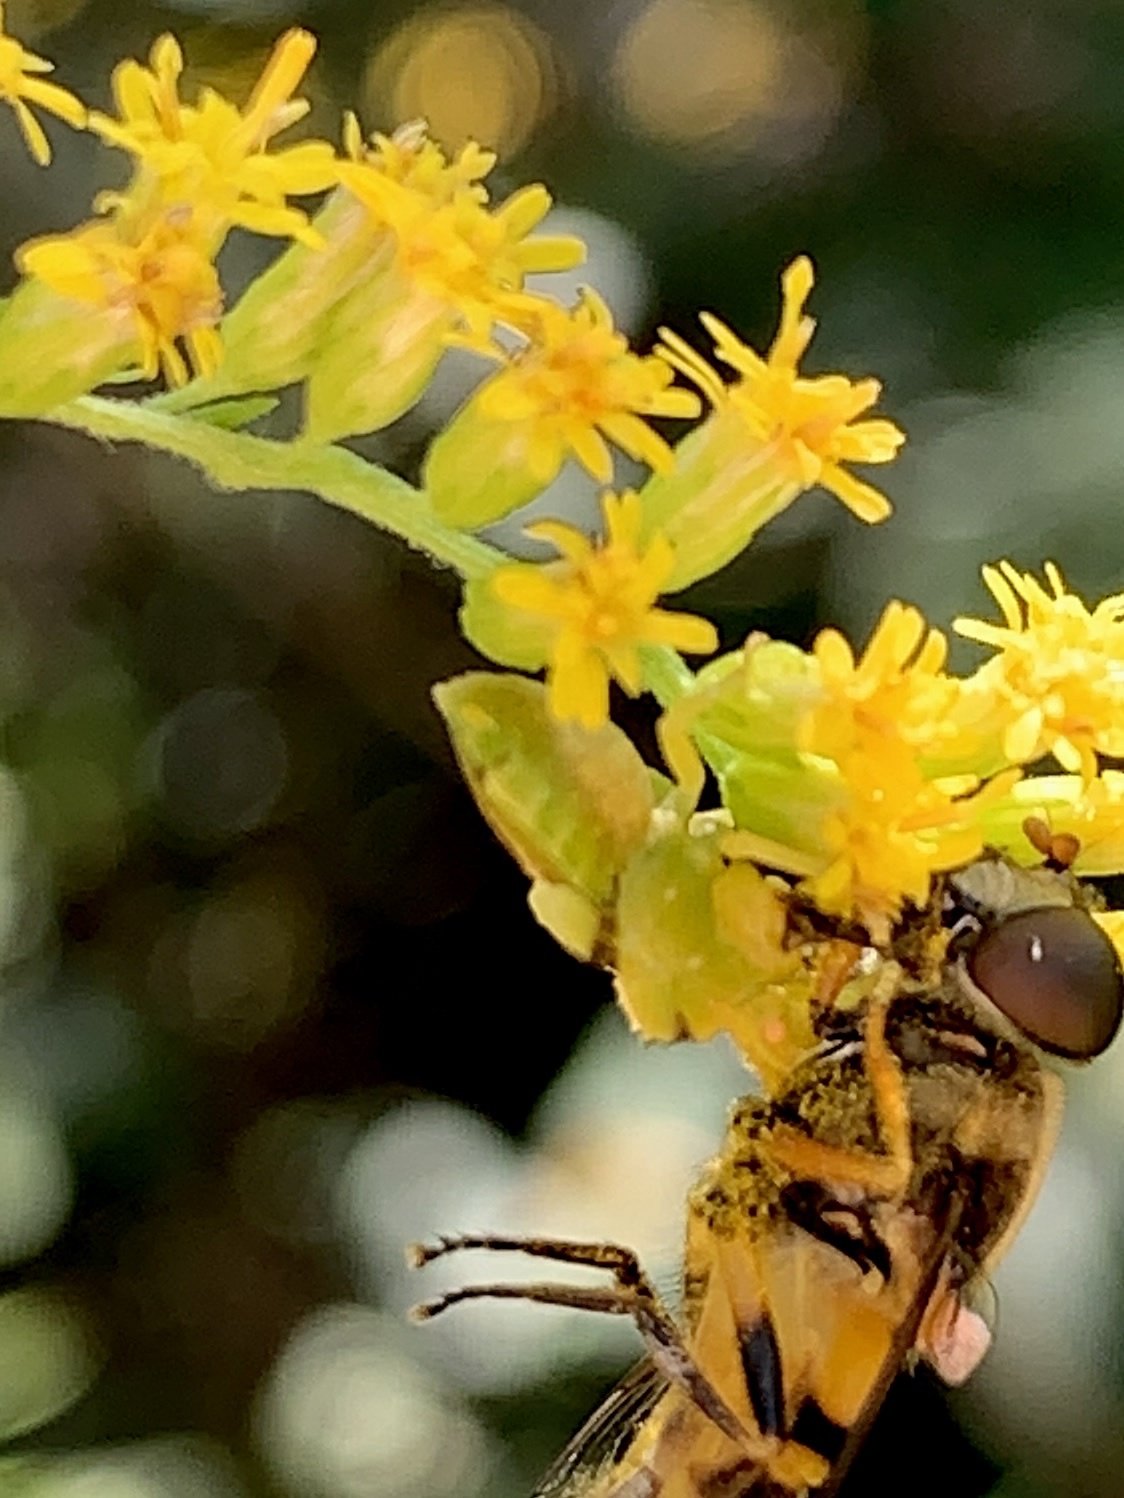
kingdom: Animalia
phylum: Arthropoda
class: Insecta
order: Diptera
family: Syrphidae
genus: Eristalis
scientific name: Eristalis transversa
